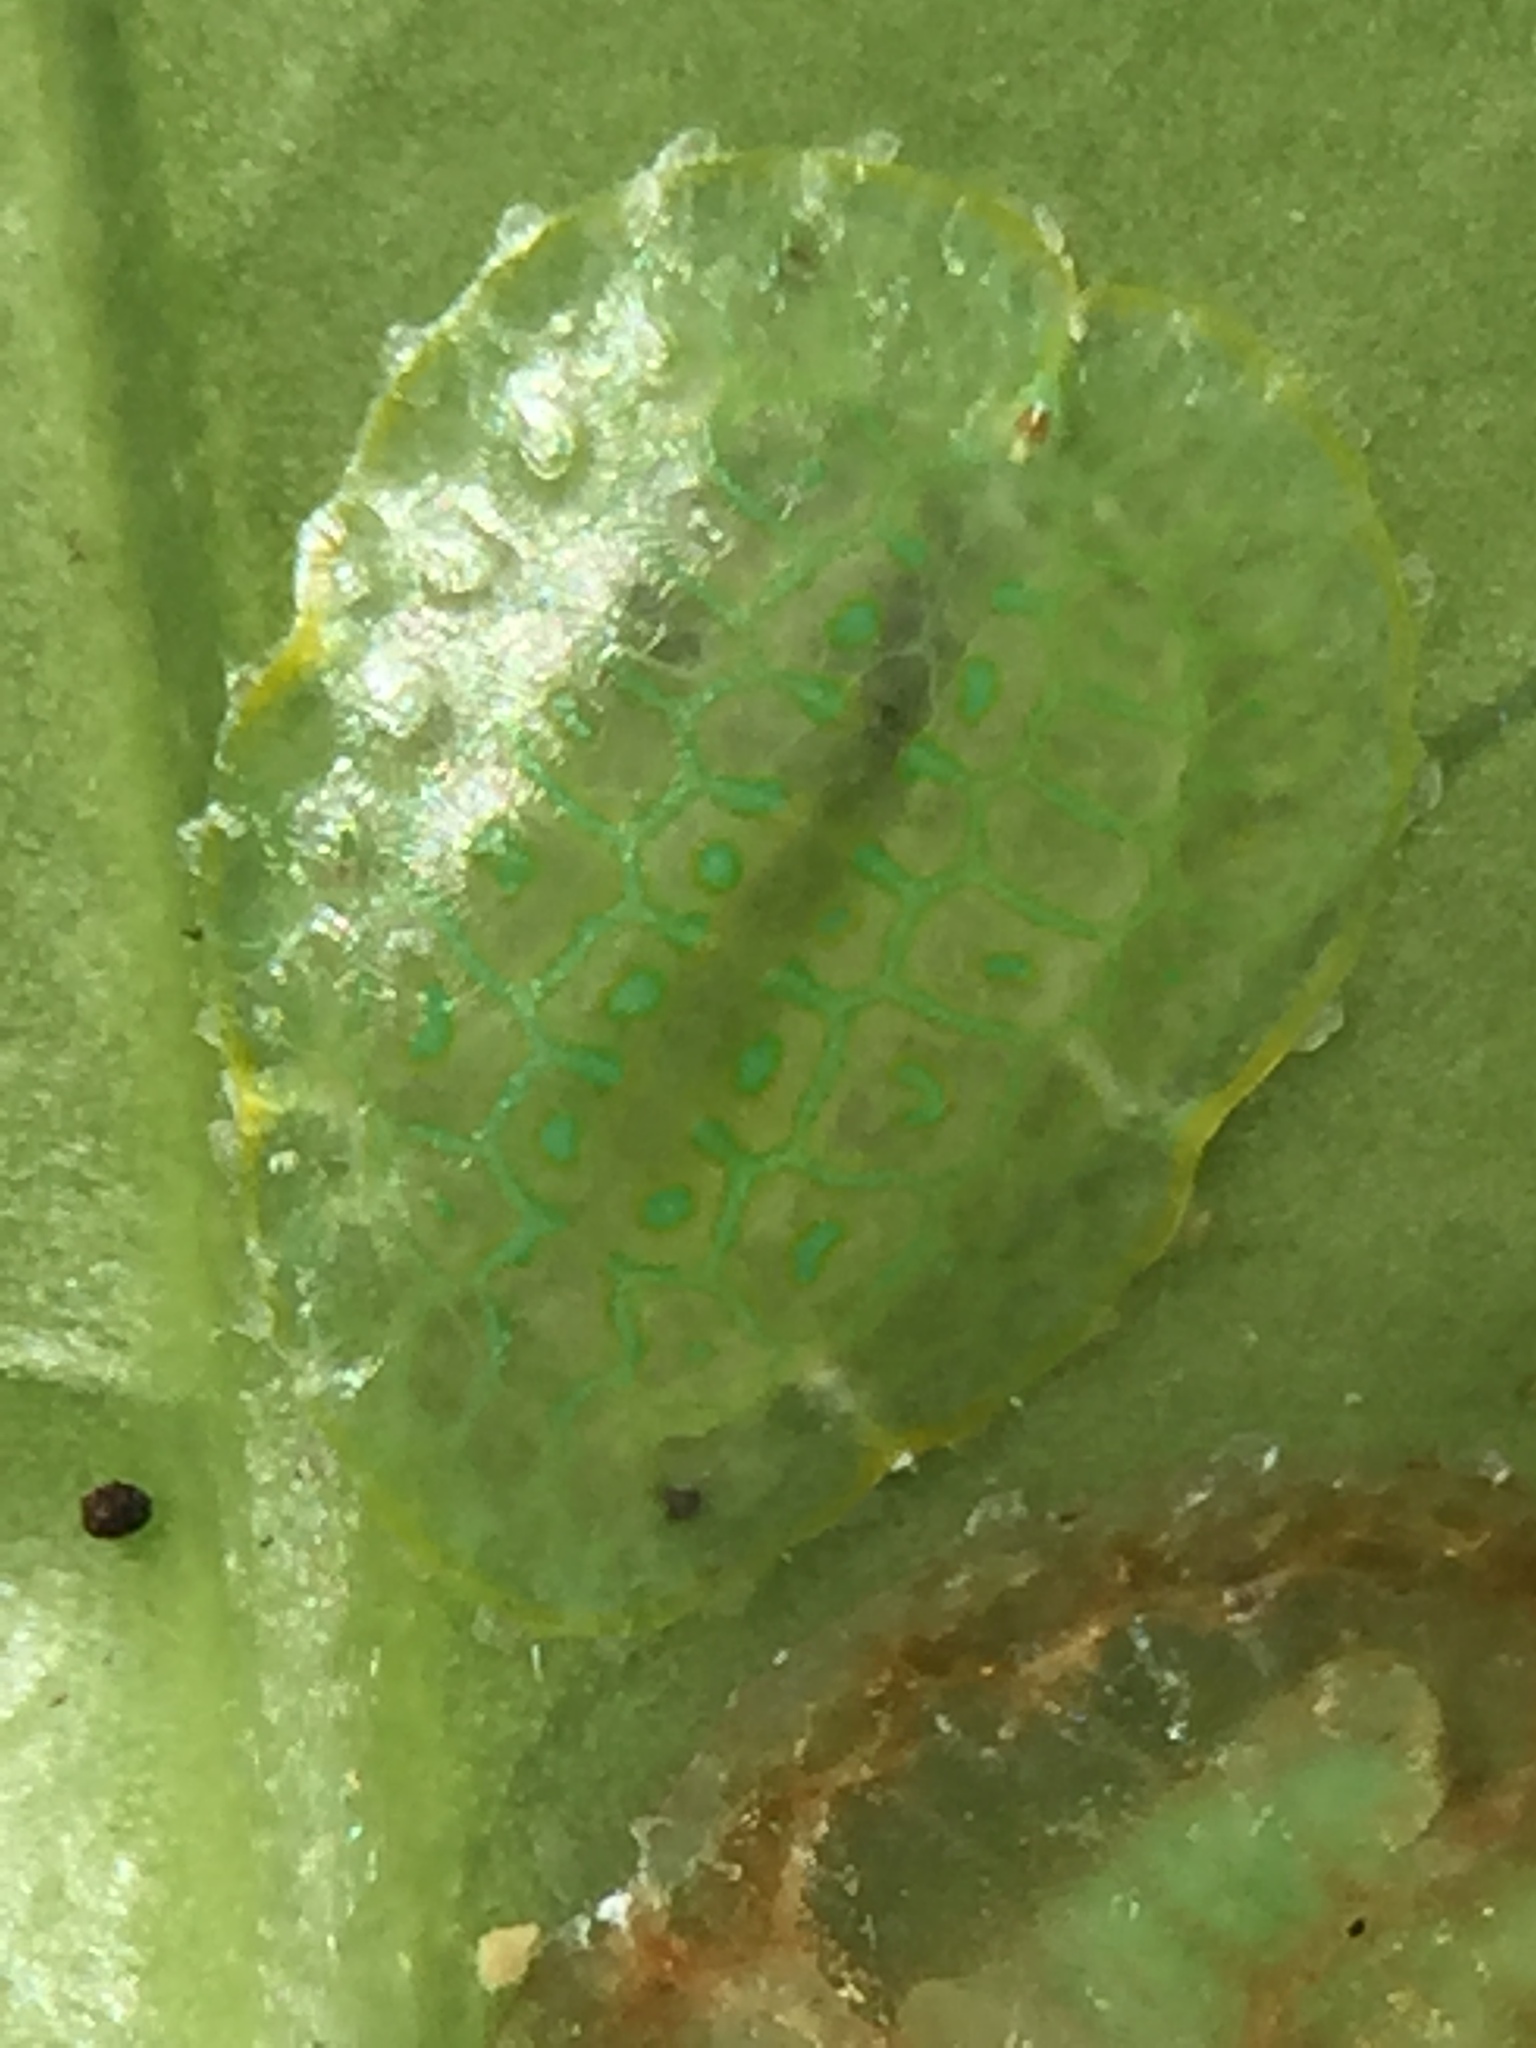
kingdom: Animalia
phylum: Arthropoda
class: Insecta
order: Hemiptera
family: Coccidae
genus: Ctenochiton
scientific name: Ctenochiton chelyon
